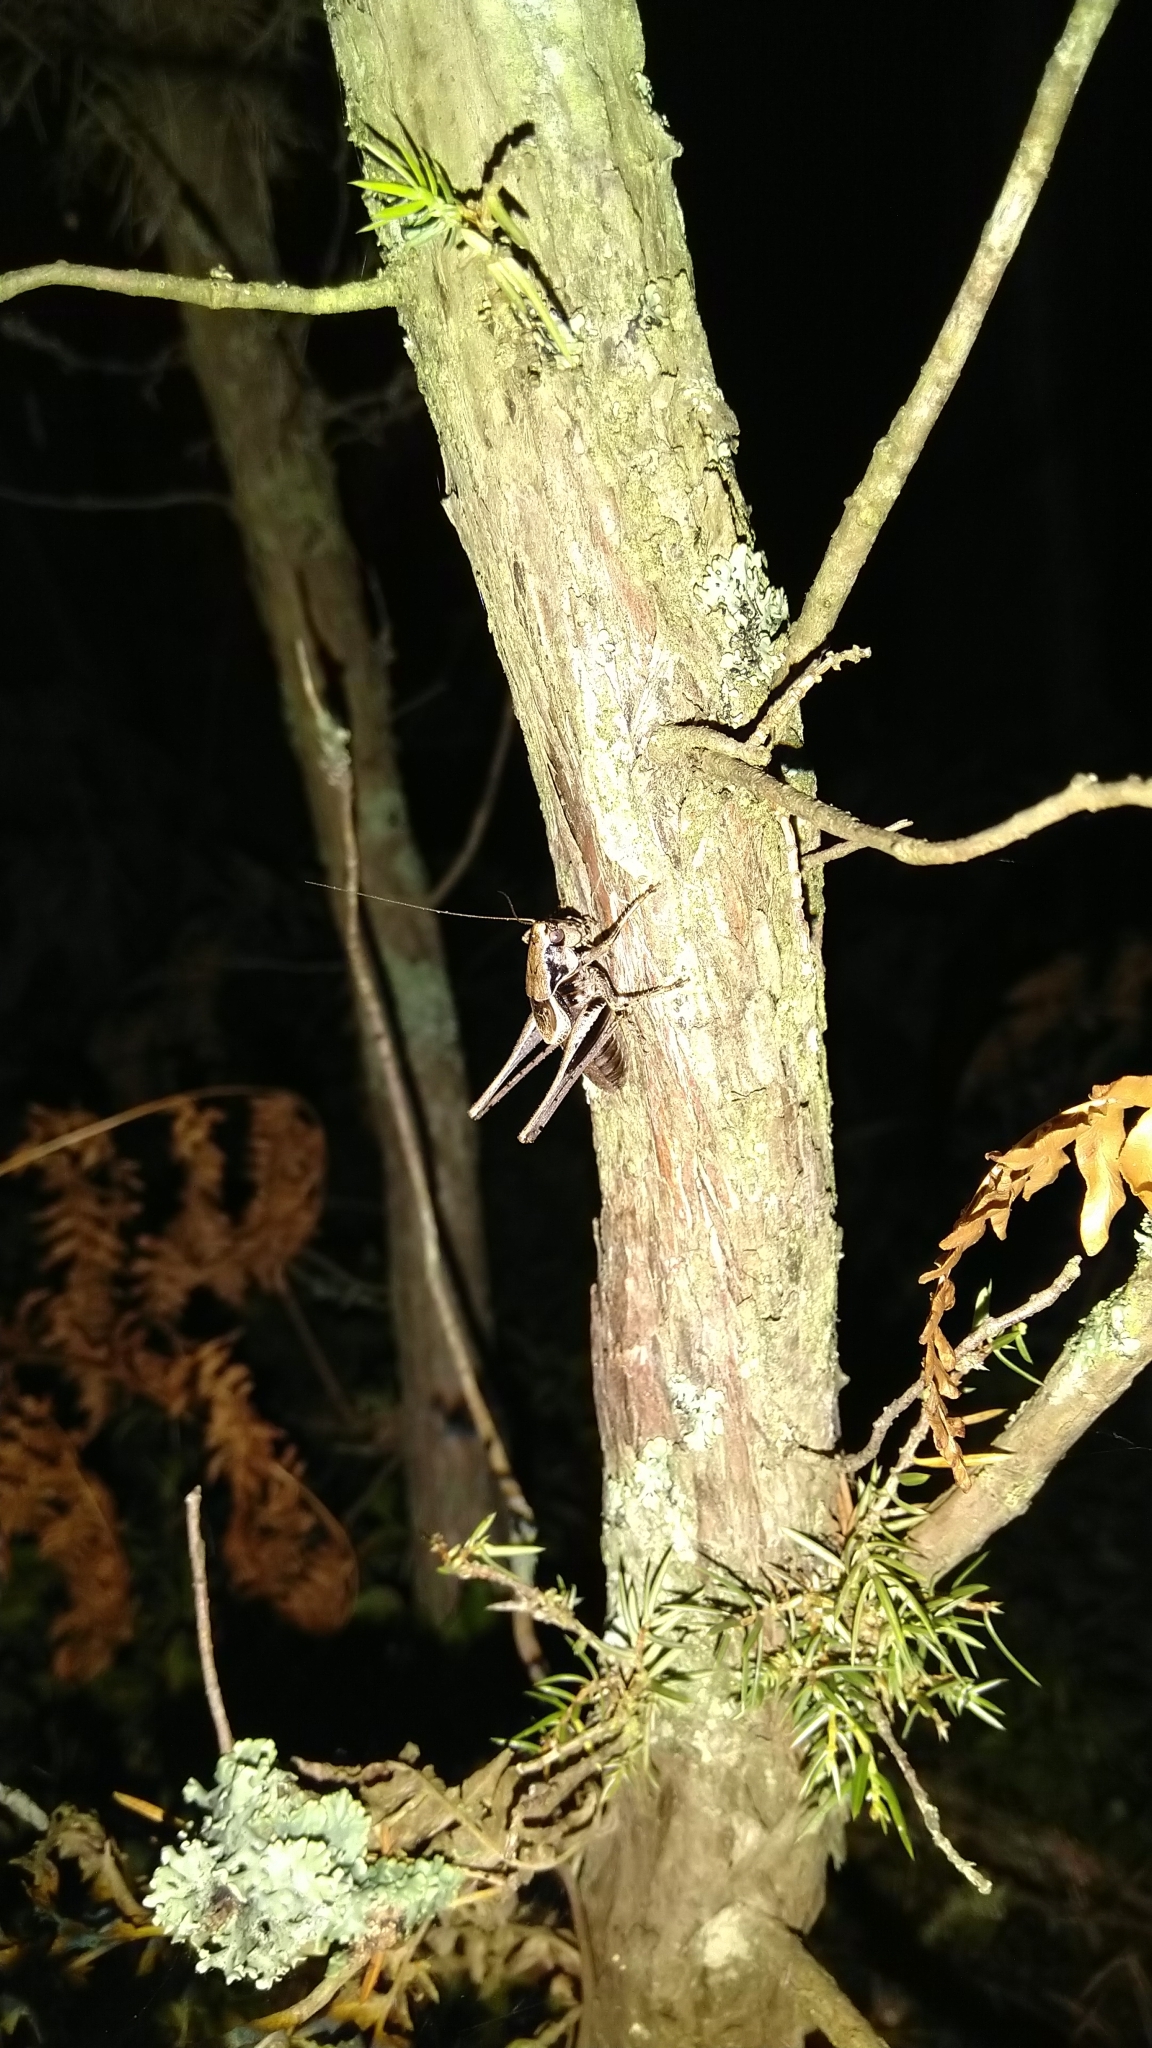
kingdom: Animalia
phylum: Arthropoda
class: Insecta
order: Orthoptera
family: Tettigoniidae
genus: Pholidoptera
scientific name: Pholidoptera griseoaptera
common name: Dark bush-cricket
